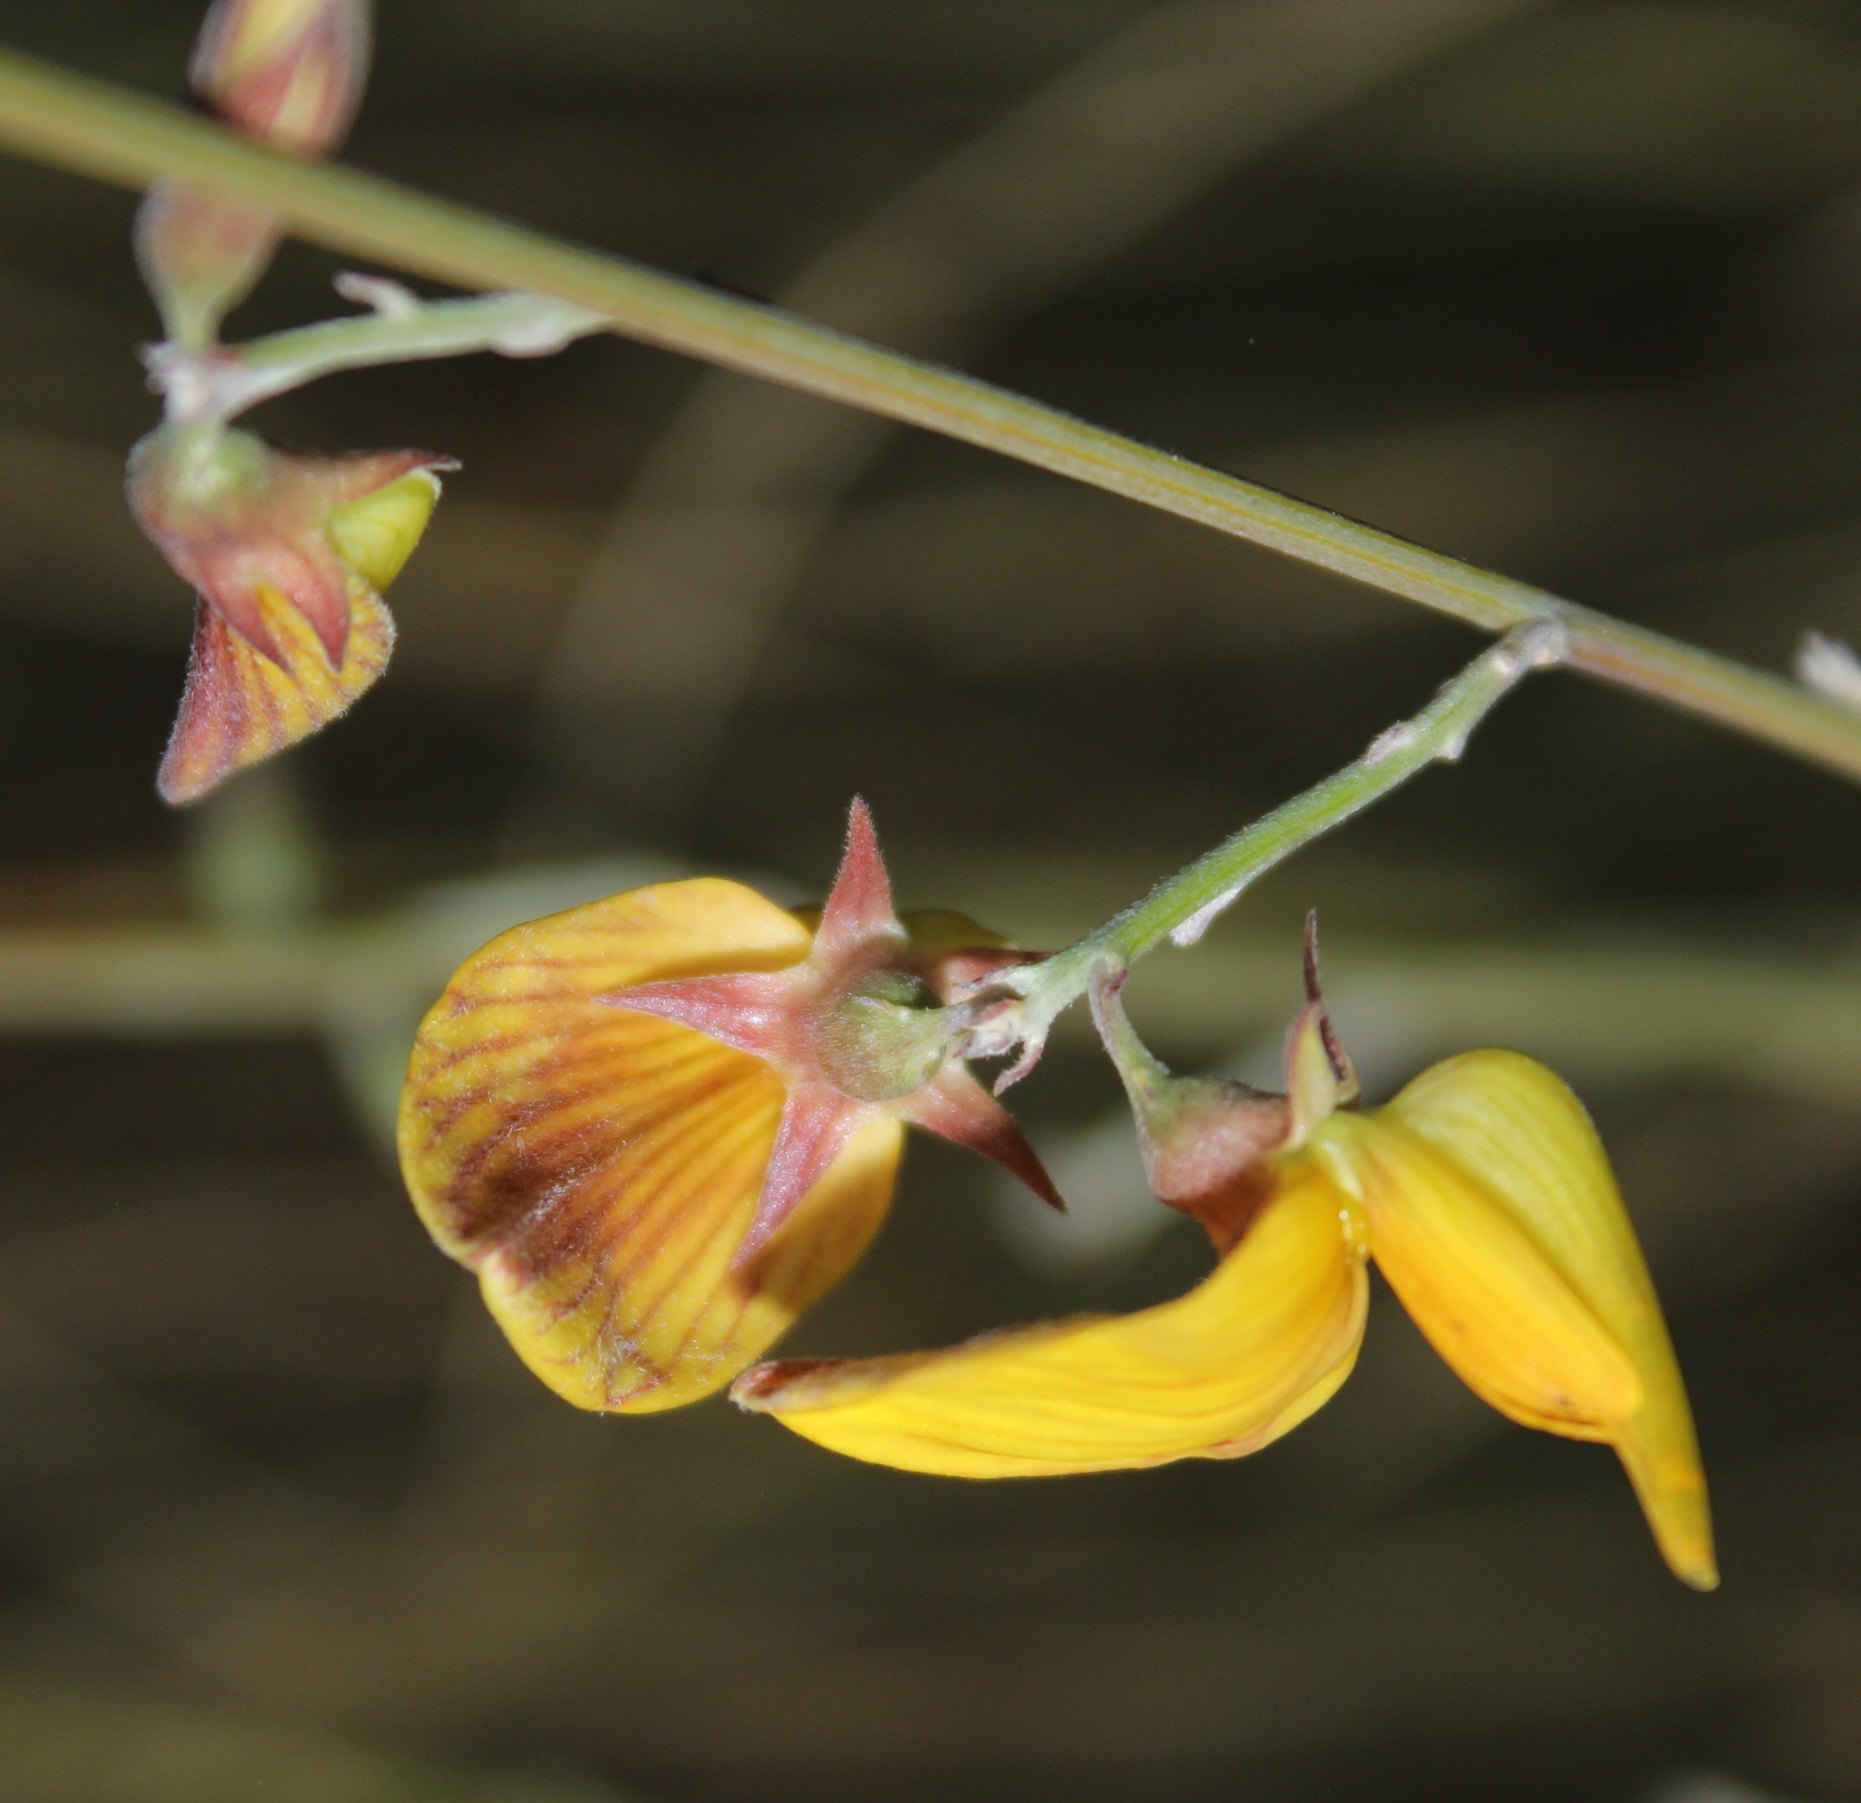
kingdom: Plantae
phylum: Tracheophyta
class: Magnoliopsida
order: Fabales
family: Fabaceae
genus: Crotalaria
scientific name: Crotalaria spartioides
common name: Dunebush
